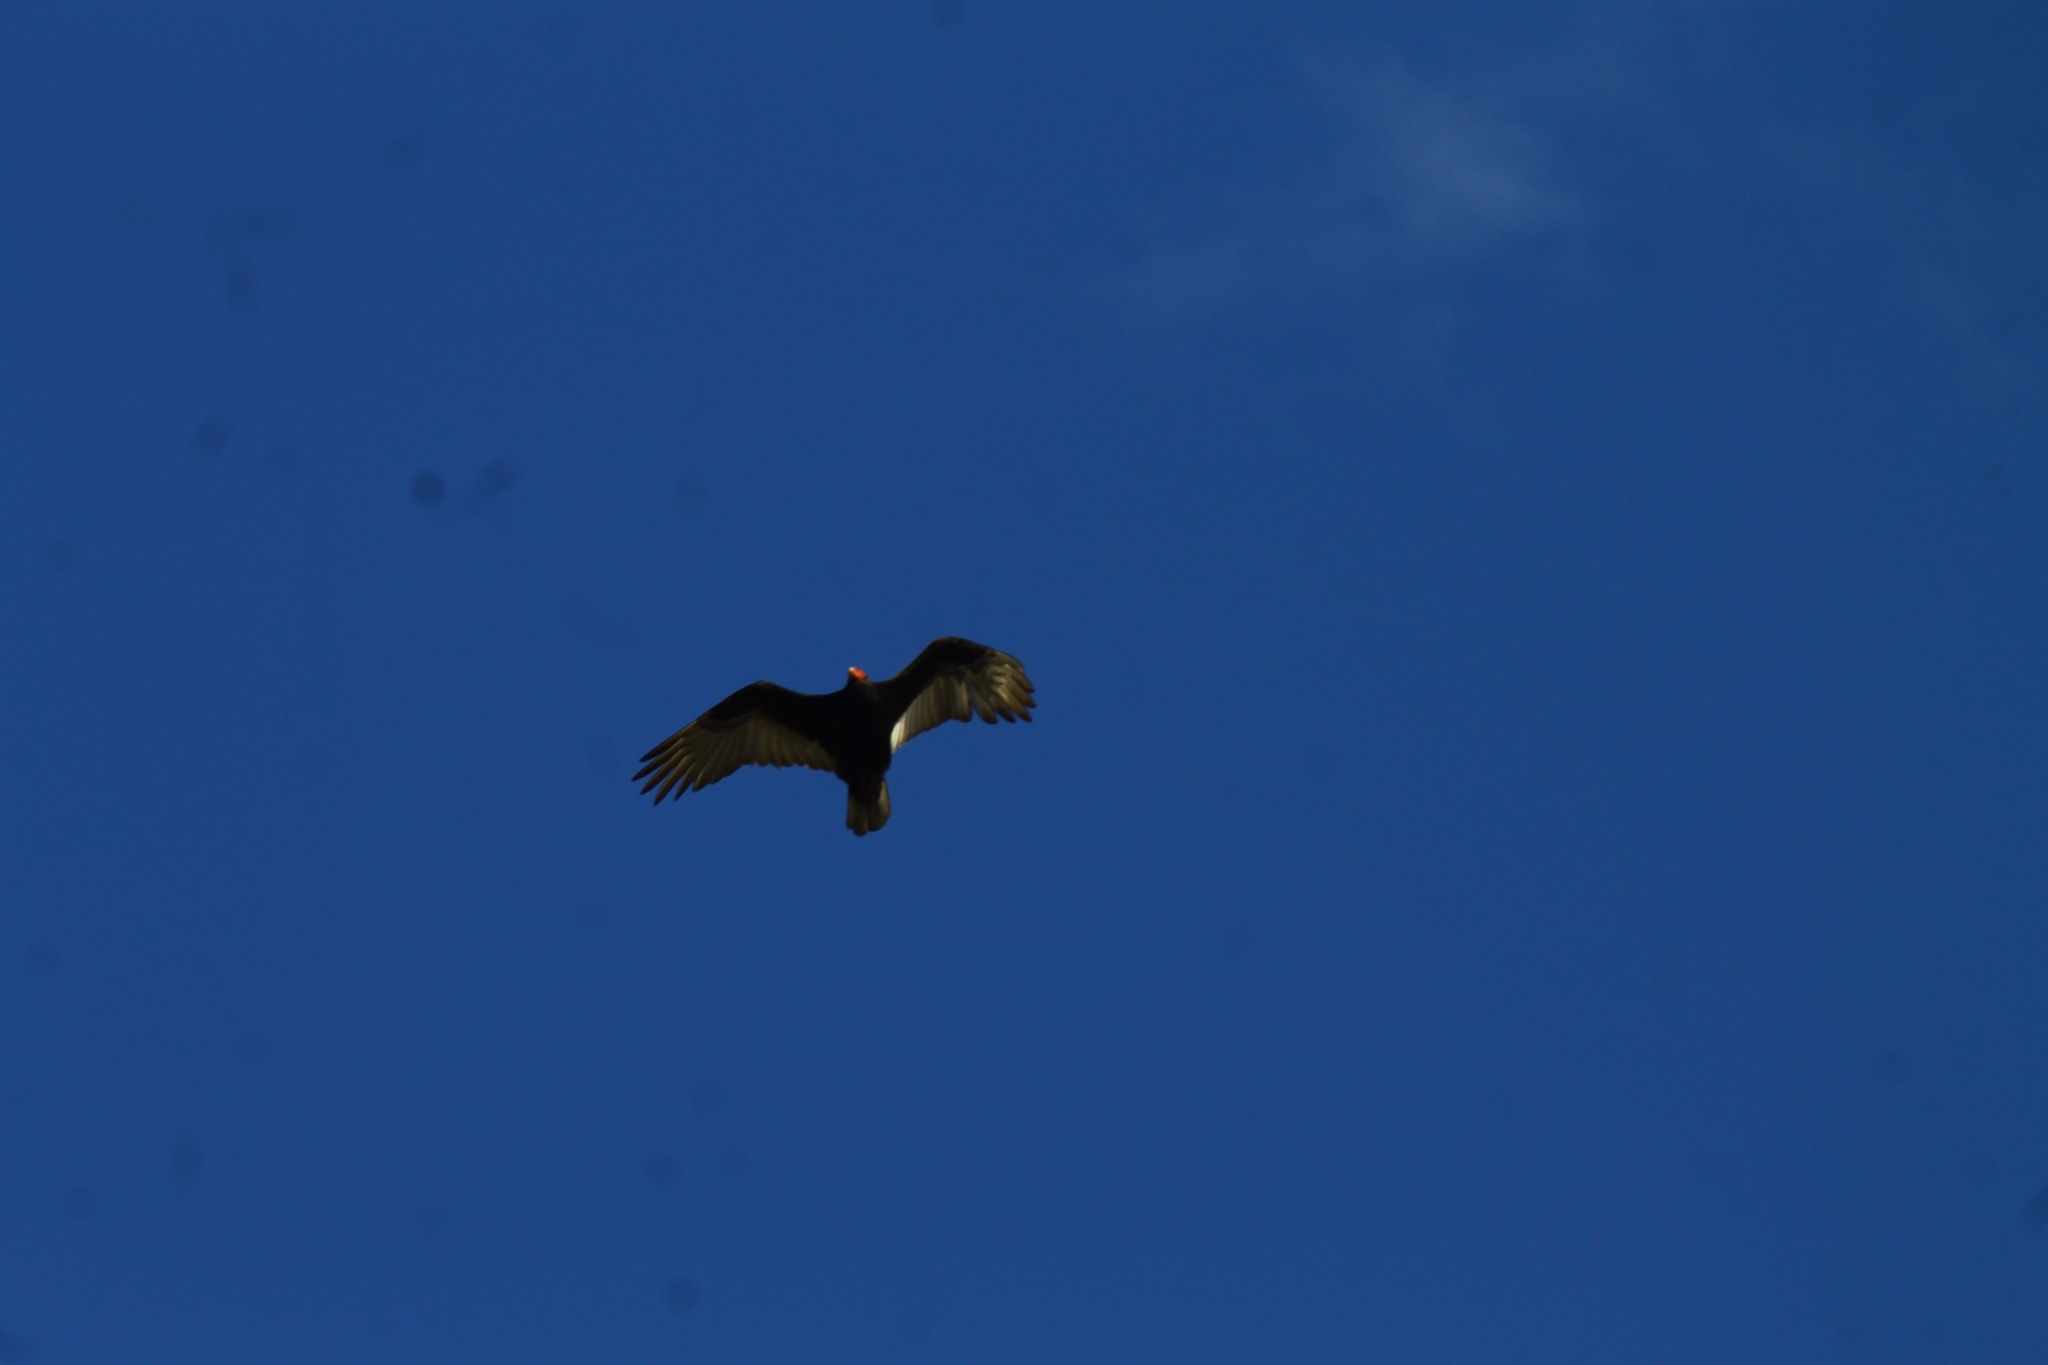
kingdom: Animalia
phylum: Chordata
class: Aves
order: Accipitriformes
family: Cathartidae
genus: Cathartes
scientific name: Cathartes aura
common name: Turkey vulture
